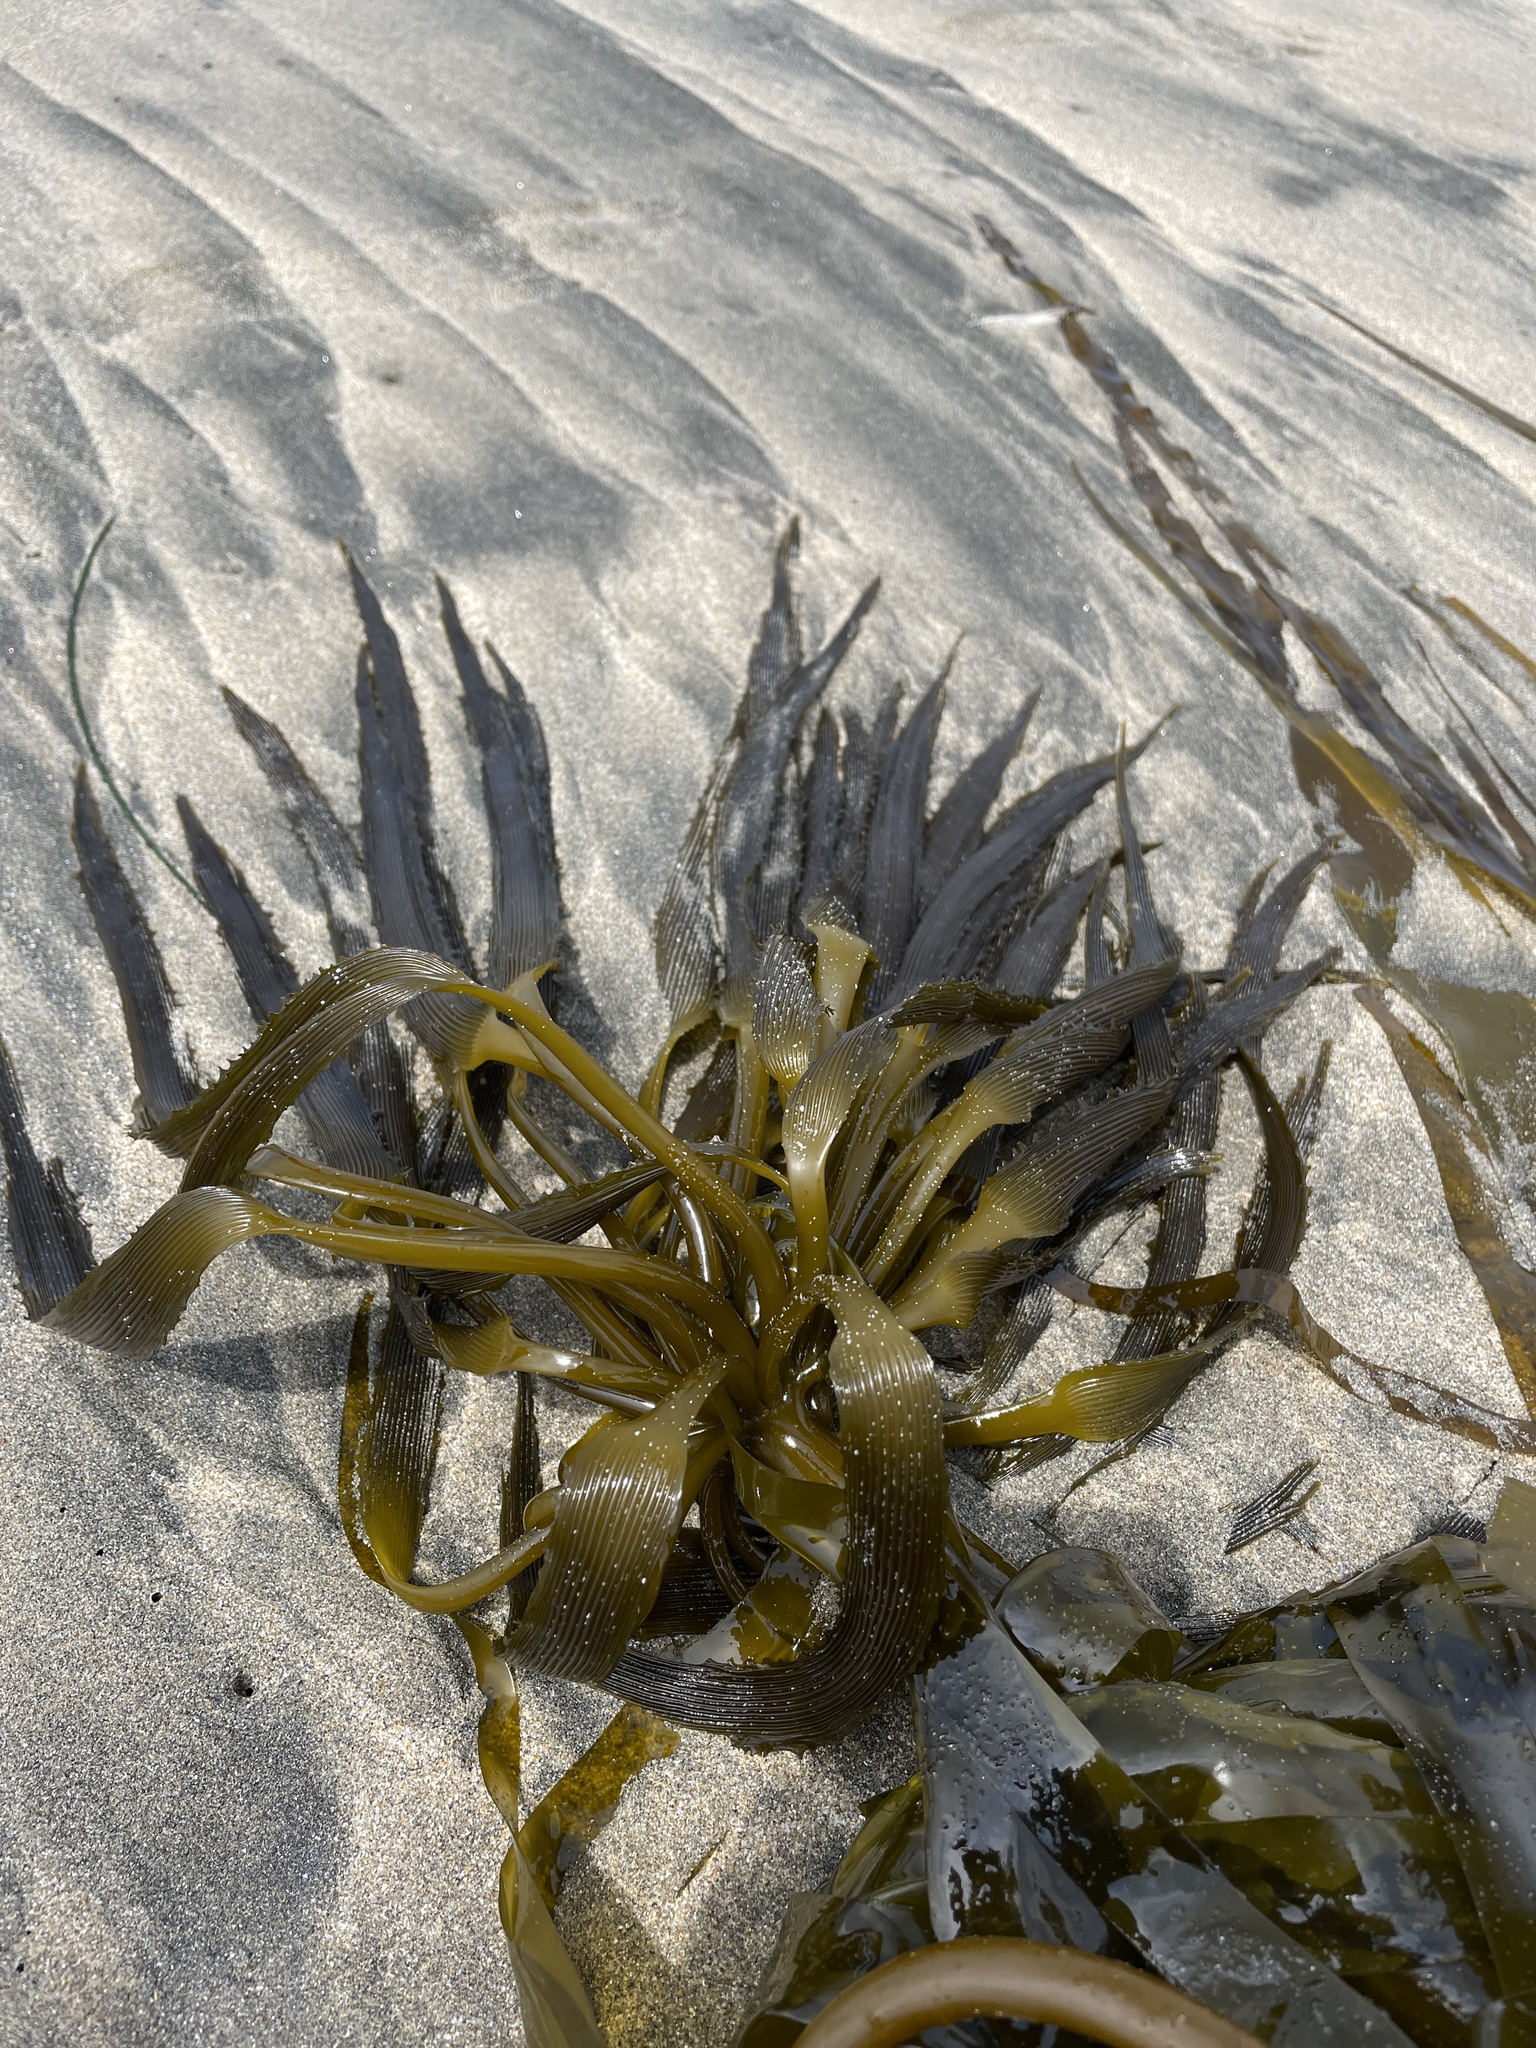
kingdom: Chromista
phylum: Ochrophyta
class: Phaeophyceae
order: Laminariales
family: Laminariaceae
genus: Postelsia
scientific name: Postelsia palmiformis
